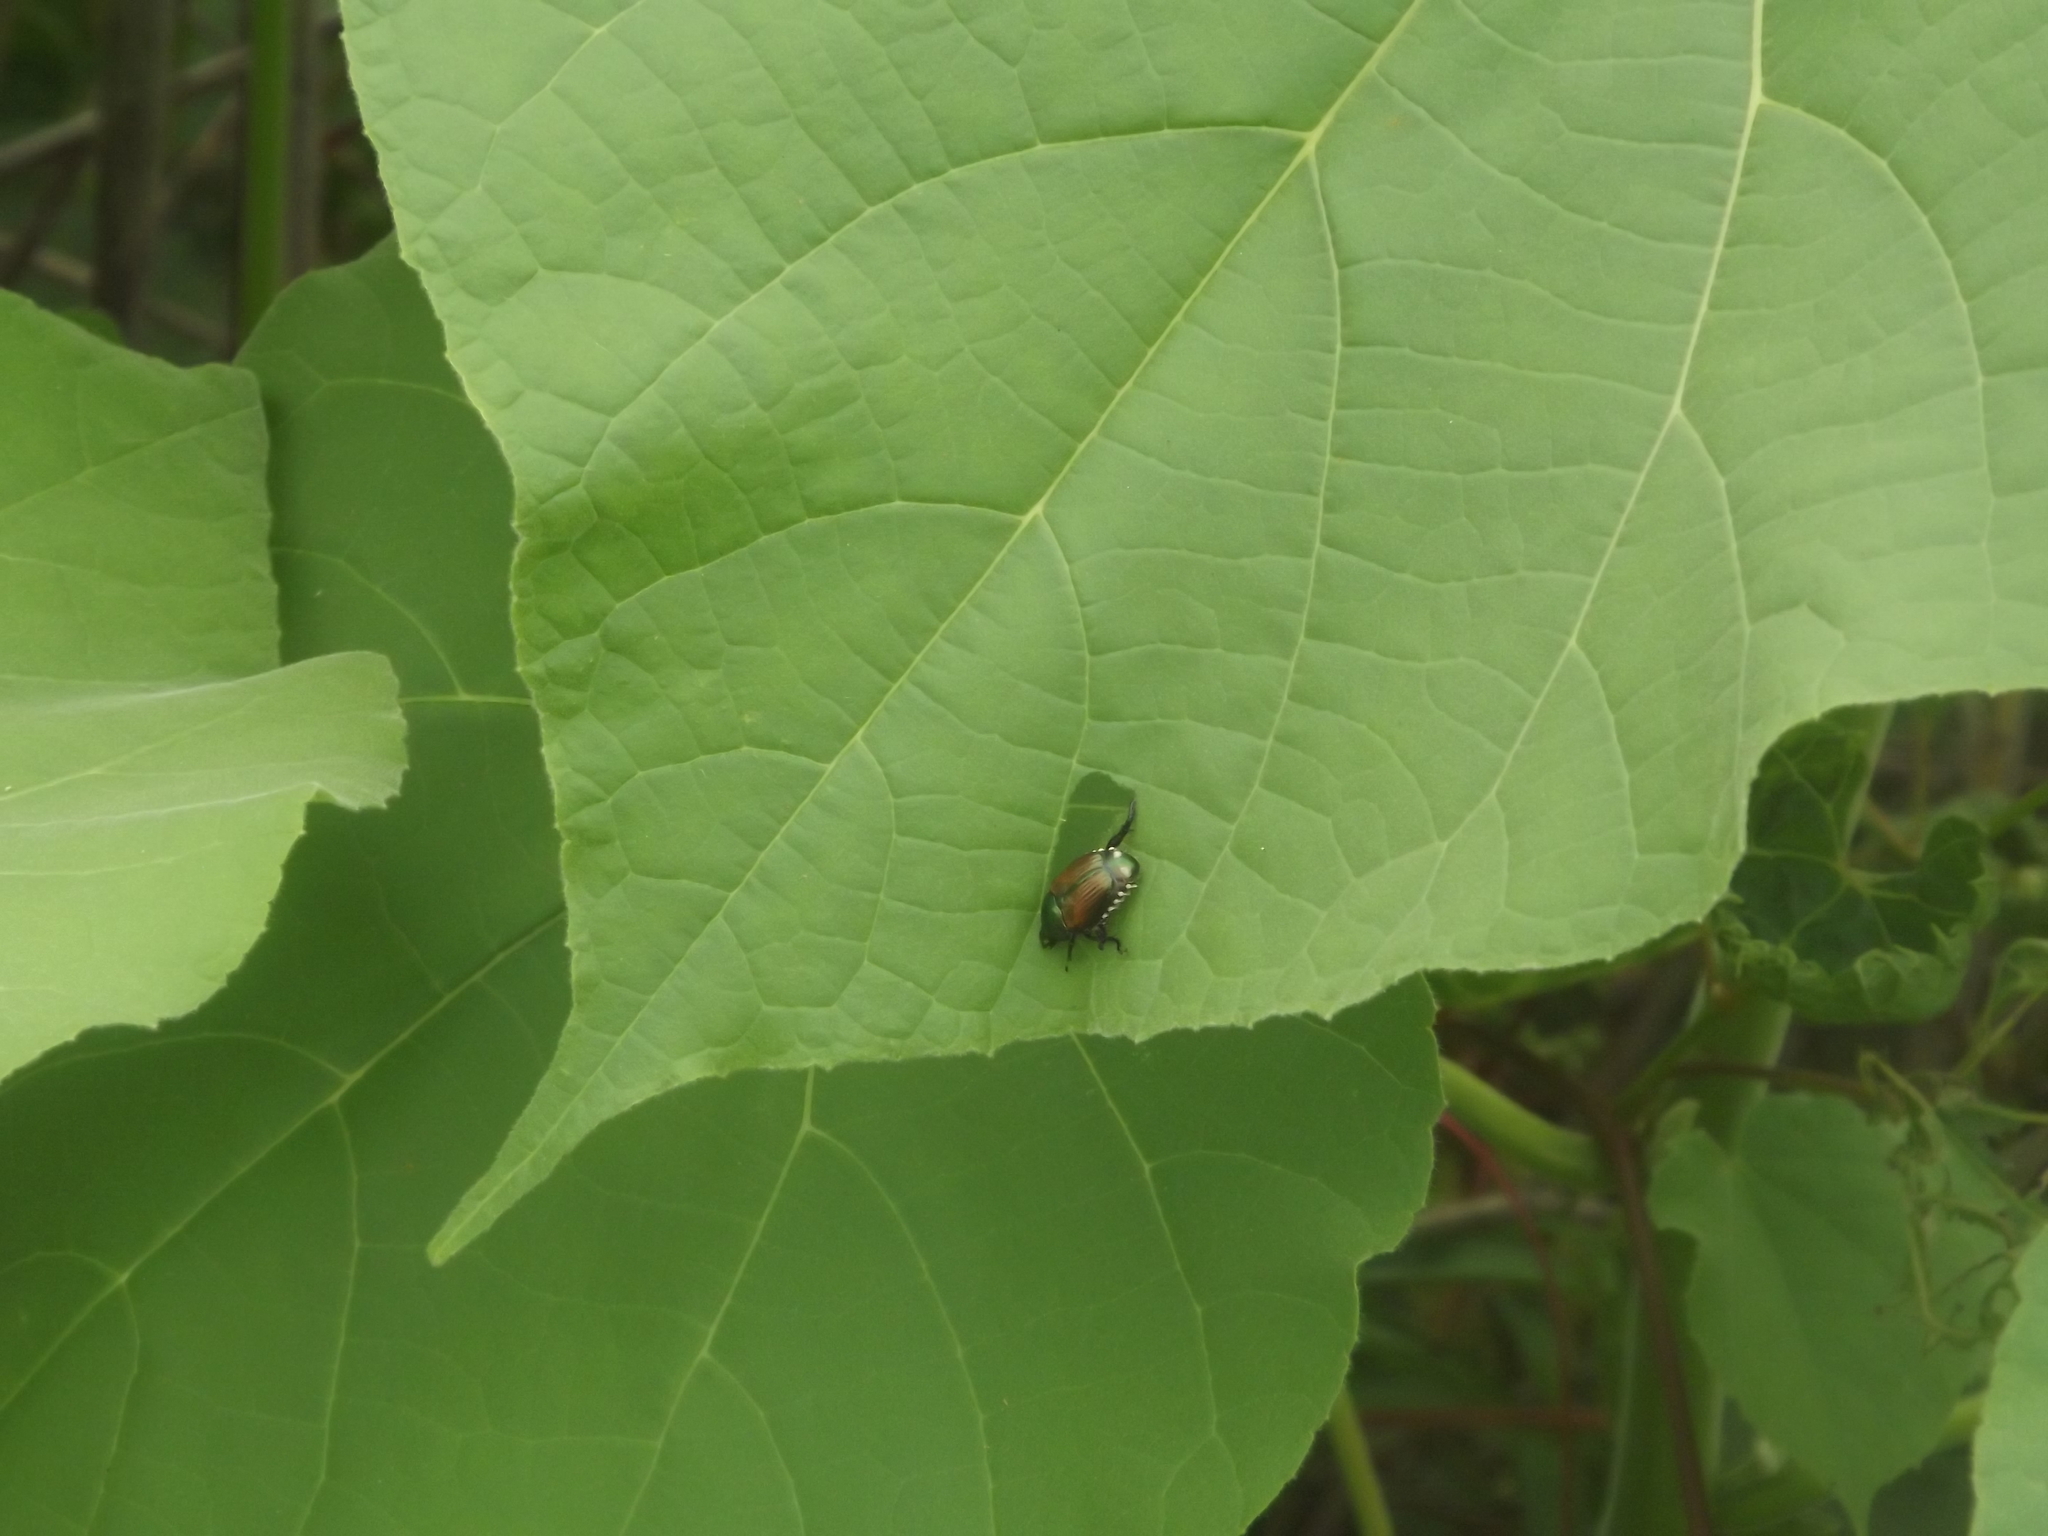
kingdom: Animalia
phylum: Arthropoda
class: Insecta
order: Coleoptera
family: Scarabaeidae
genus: Popillia
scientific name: Popillia japonica
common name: Japanese beetle
